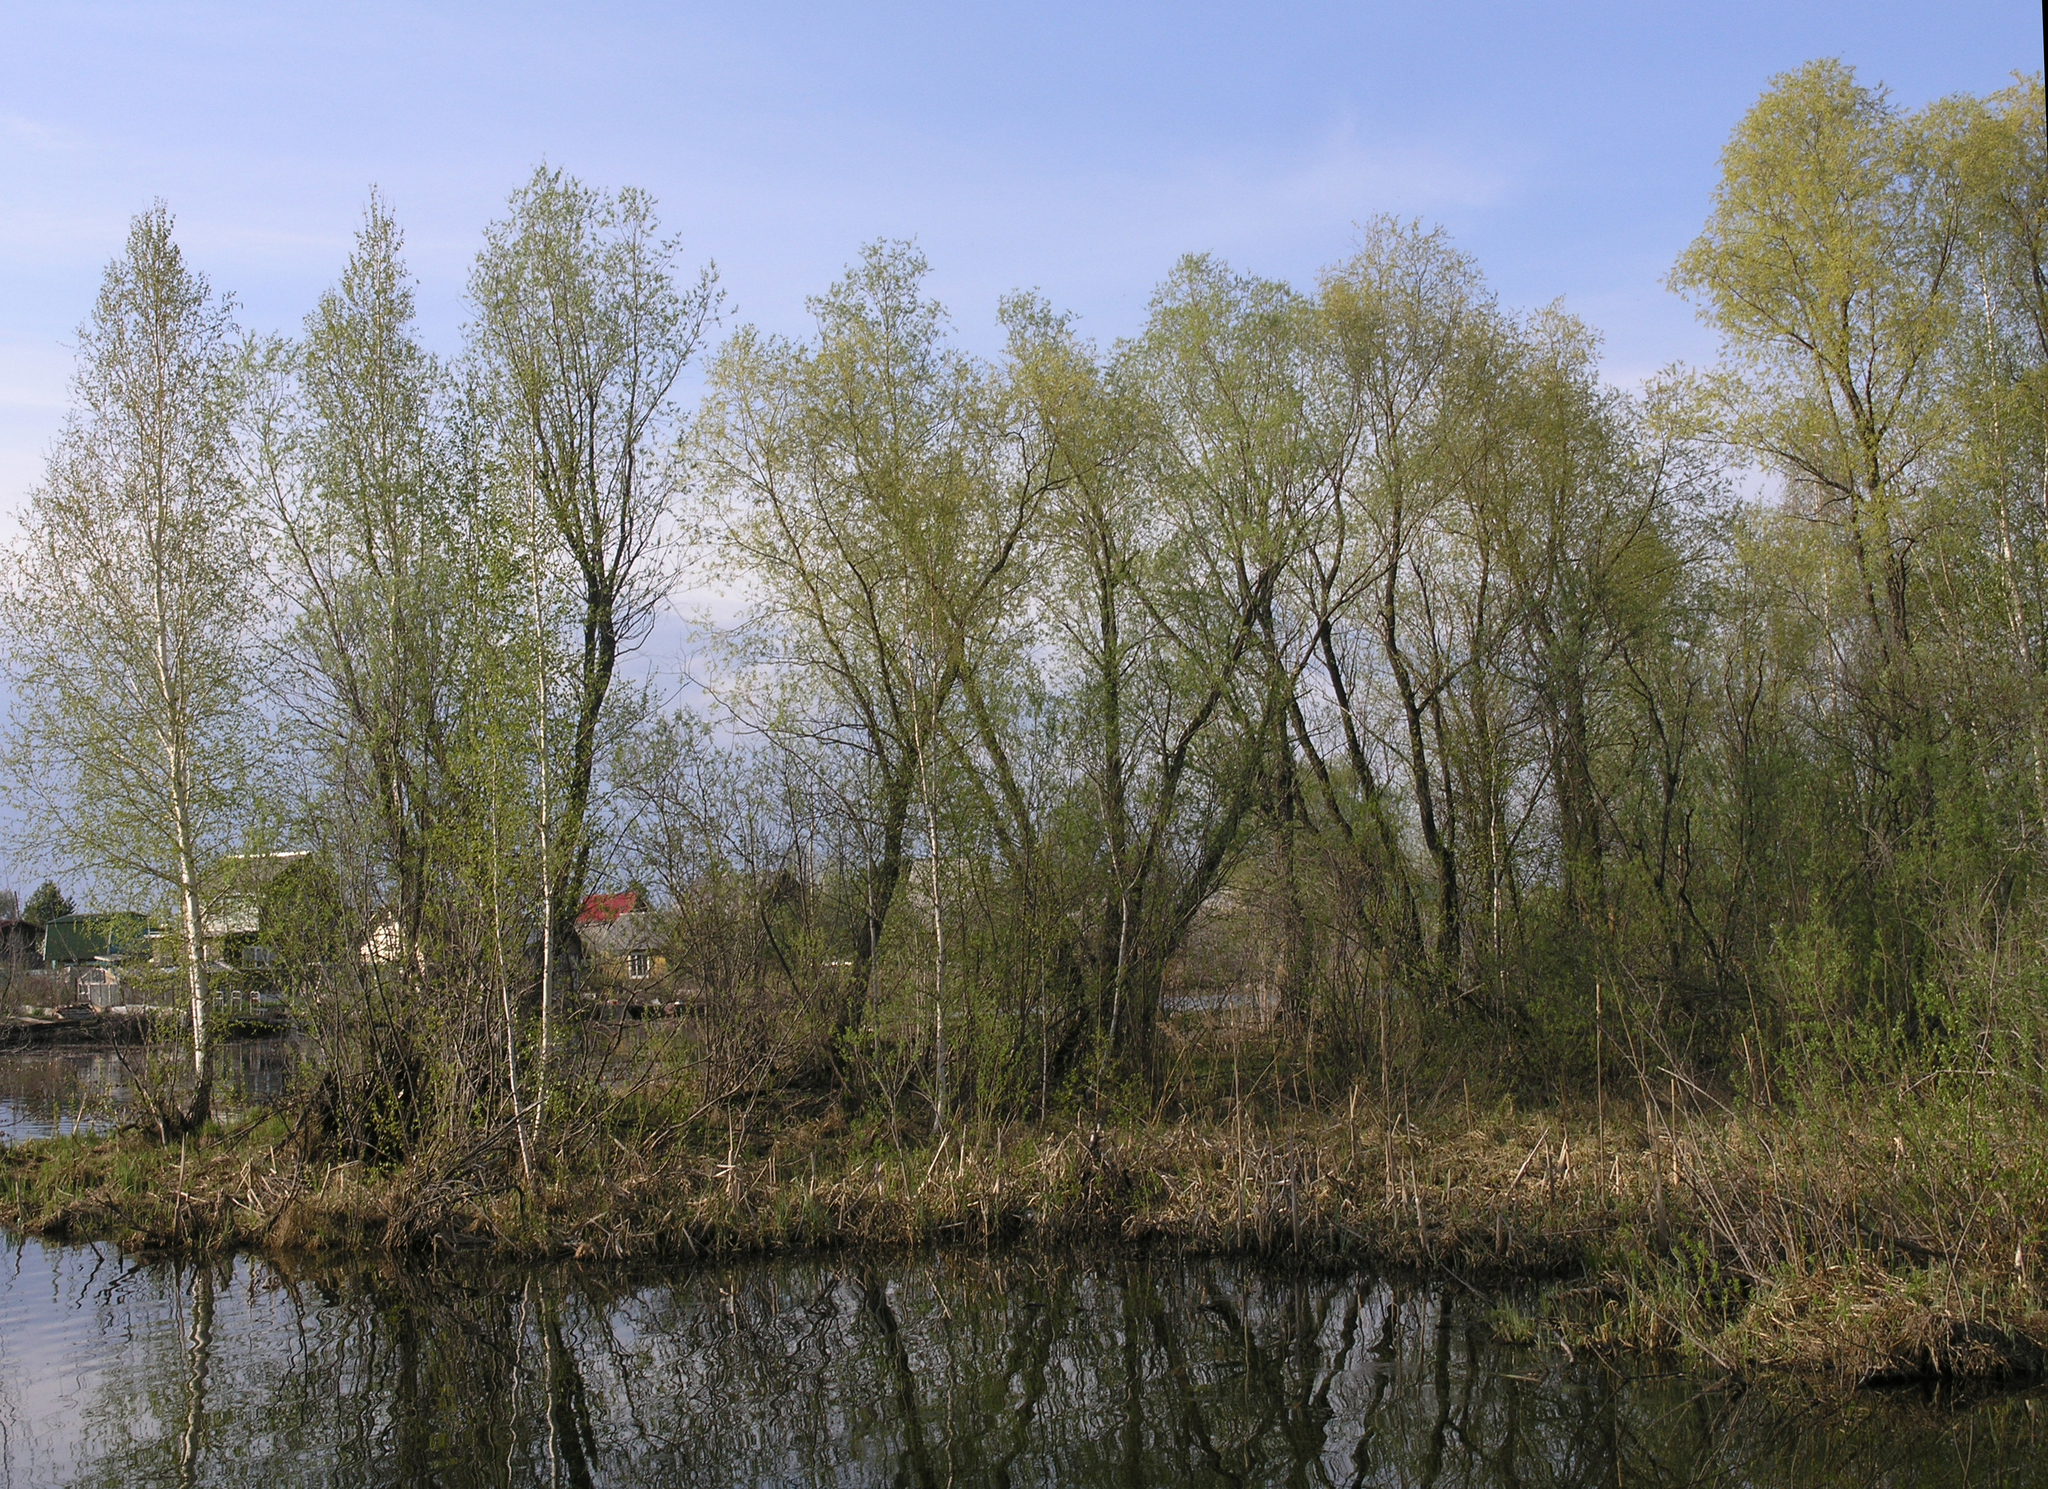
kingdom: Plantae
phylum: Tracheophyta
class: Magnoliopsida
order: Malpighiales
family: Salicaceae
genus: Salix
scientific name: Salix alba
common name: White willow
